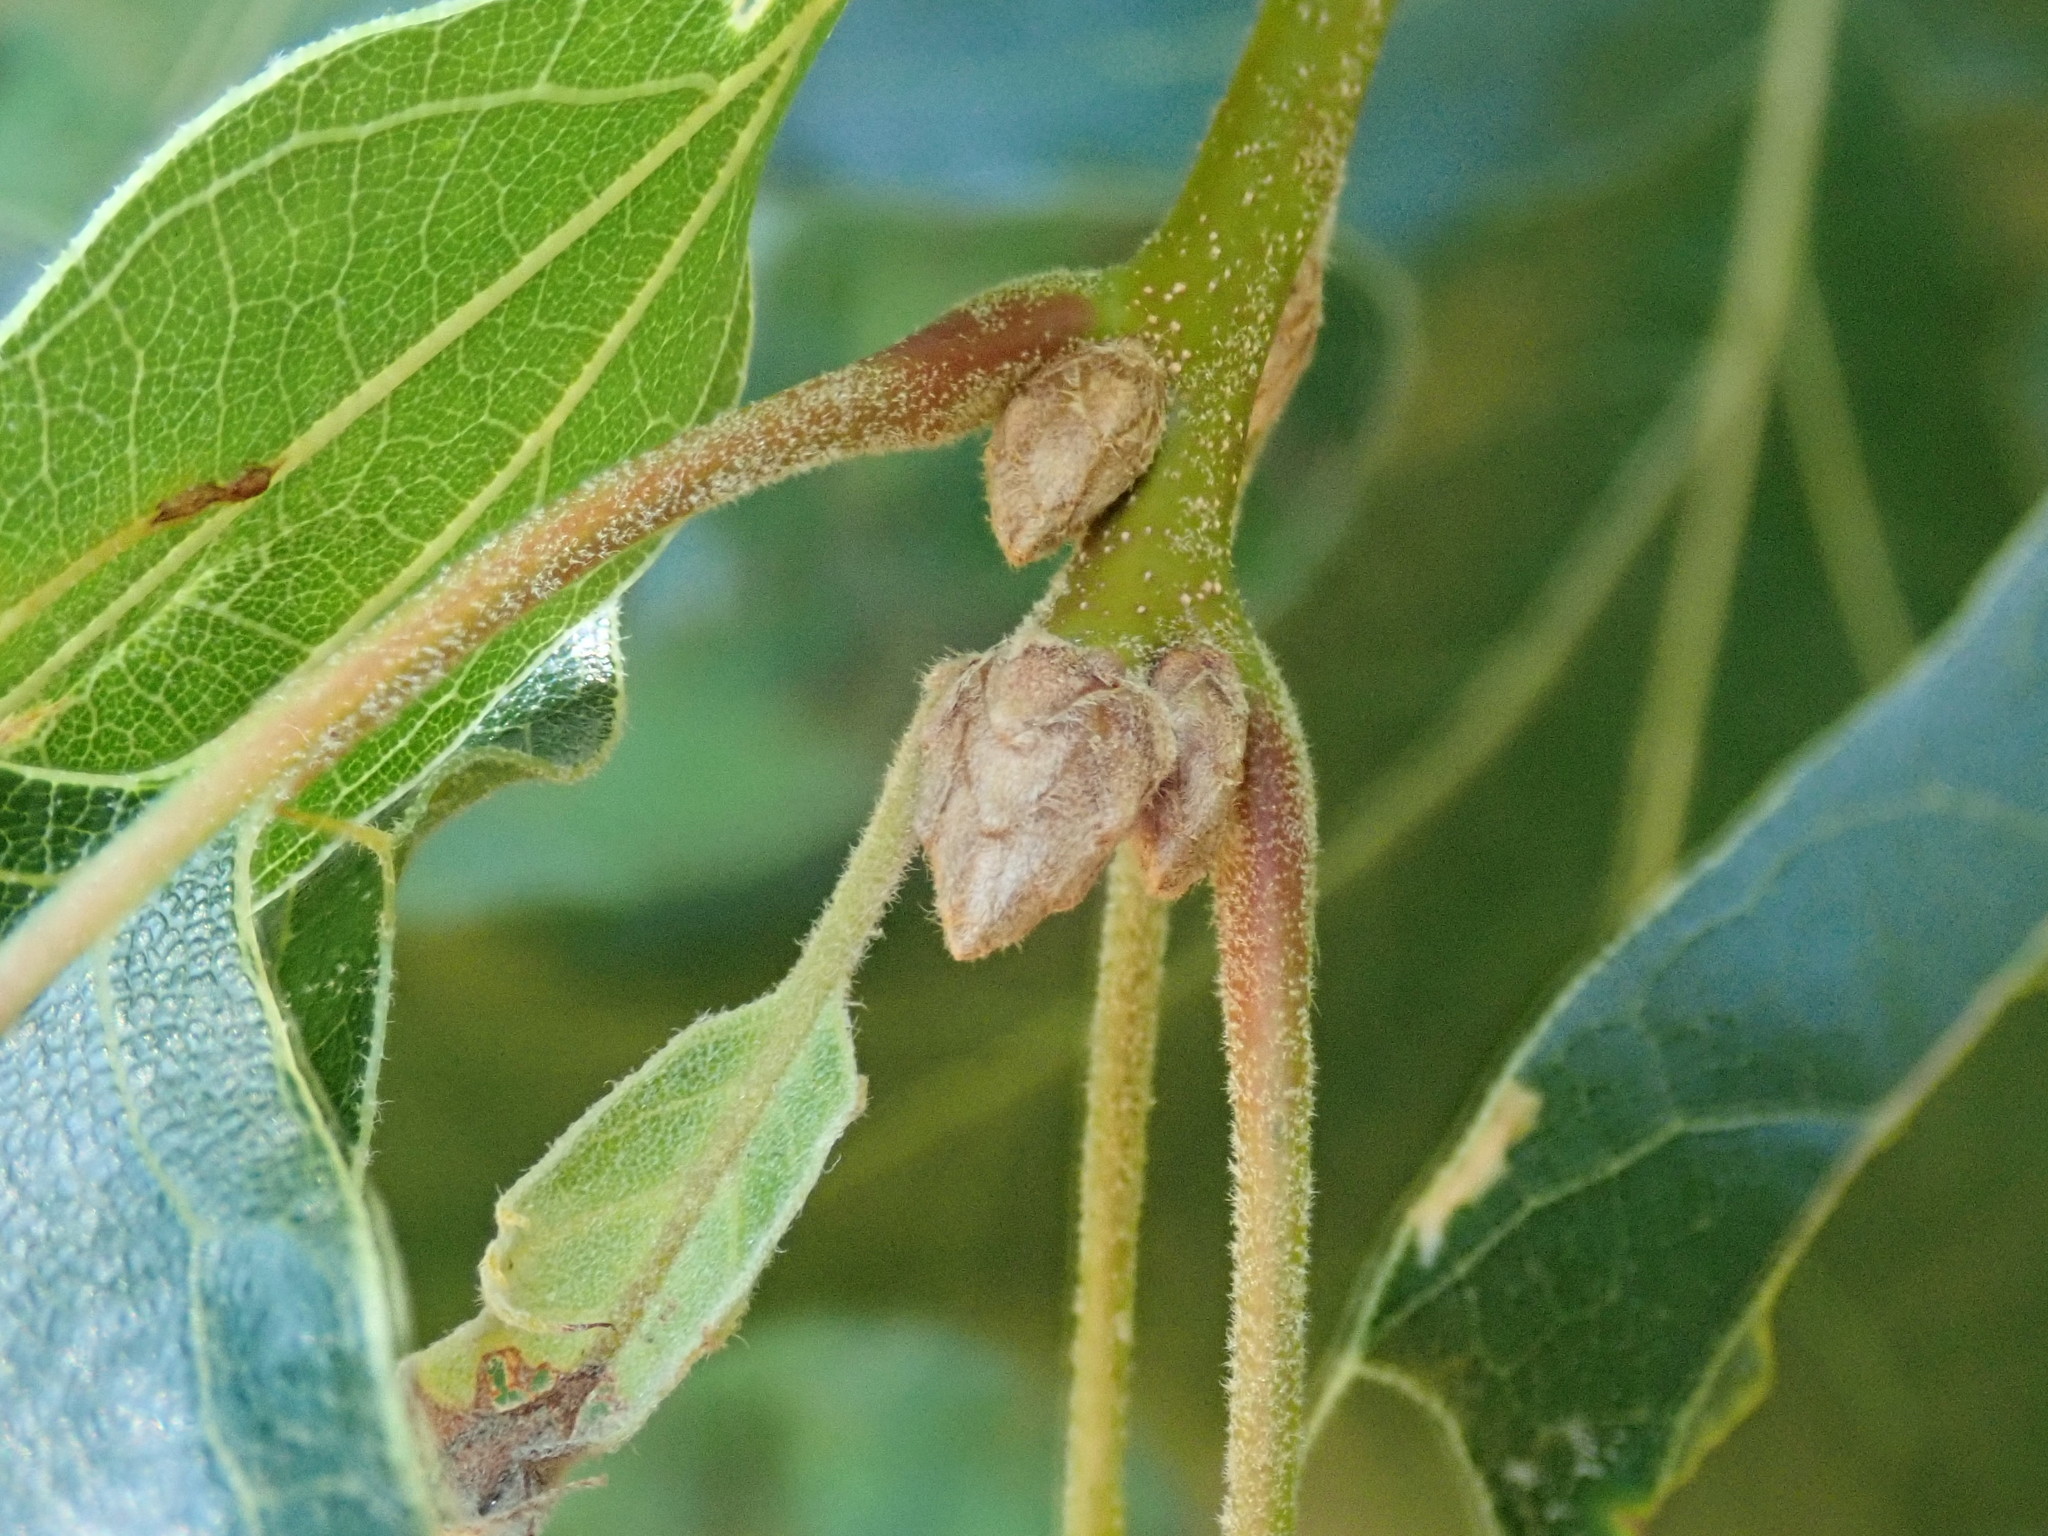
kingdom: Plantae
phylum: Tracheophyta
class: Magnoliopsida
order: Fagales
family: Fagaceae
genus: Quercus
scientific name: Quercus
